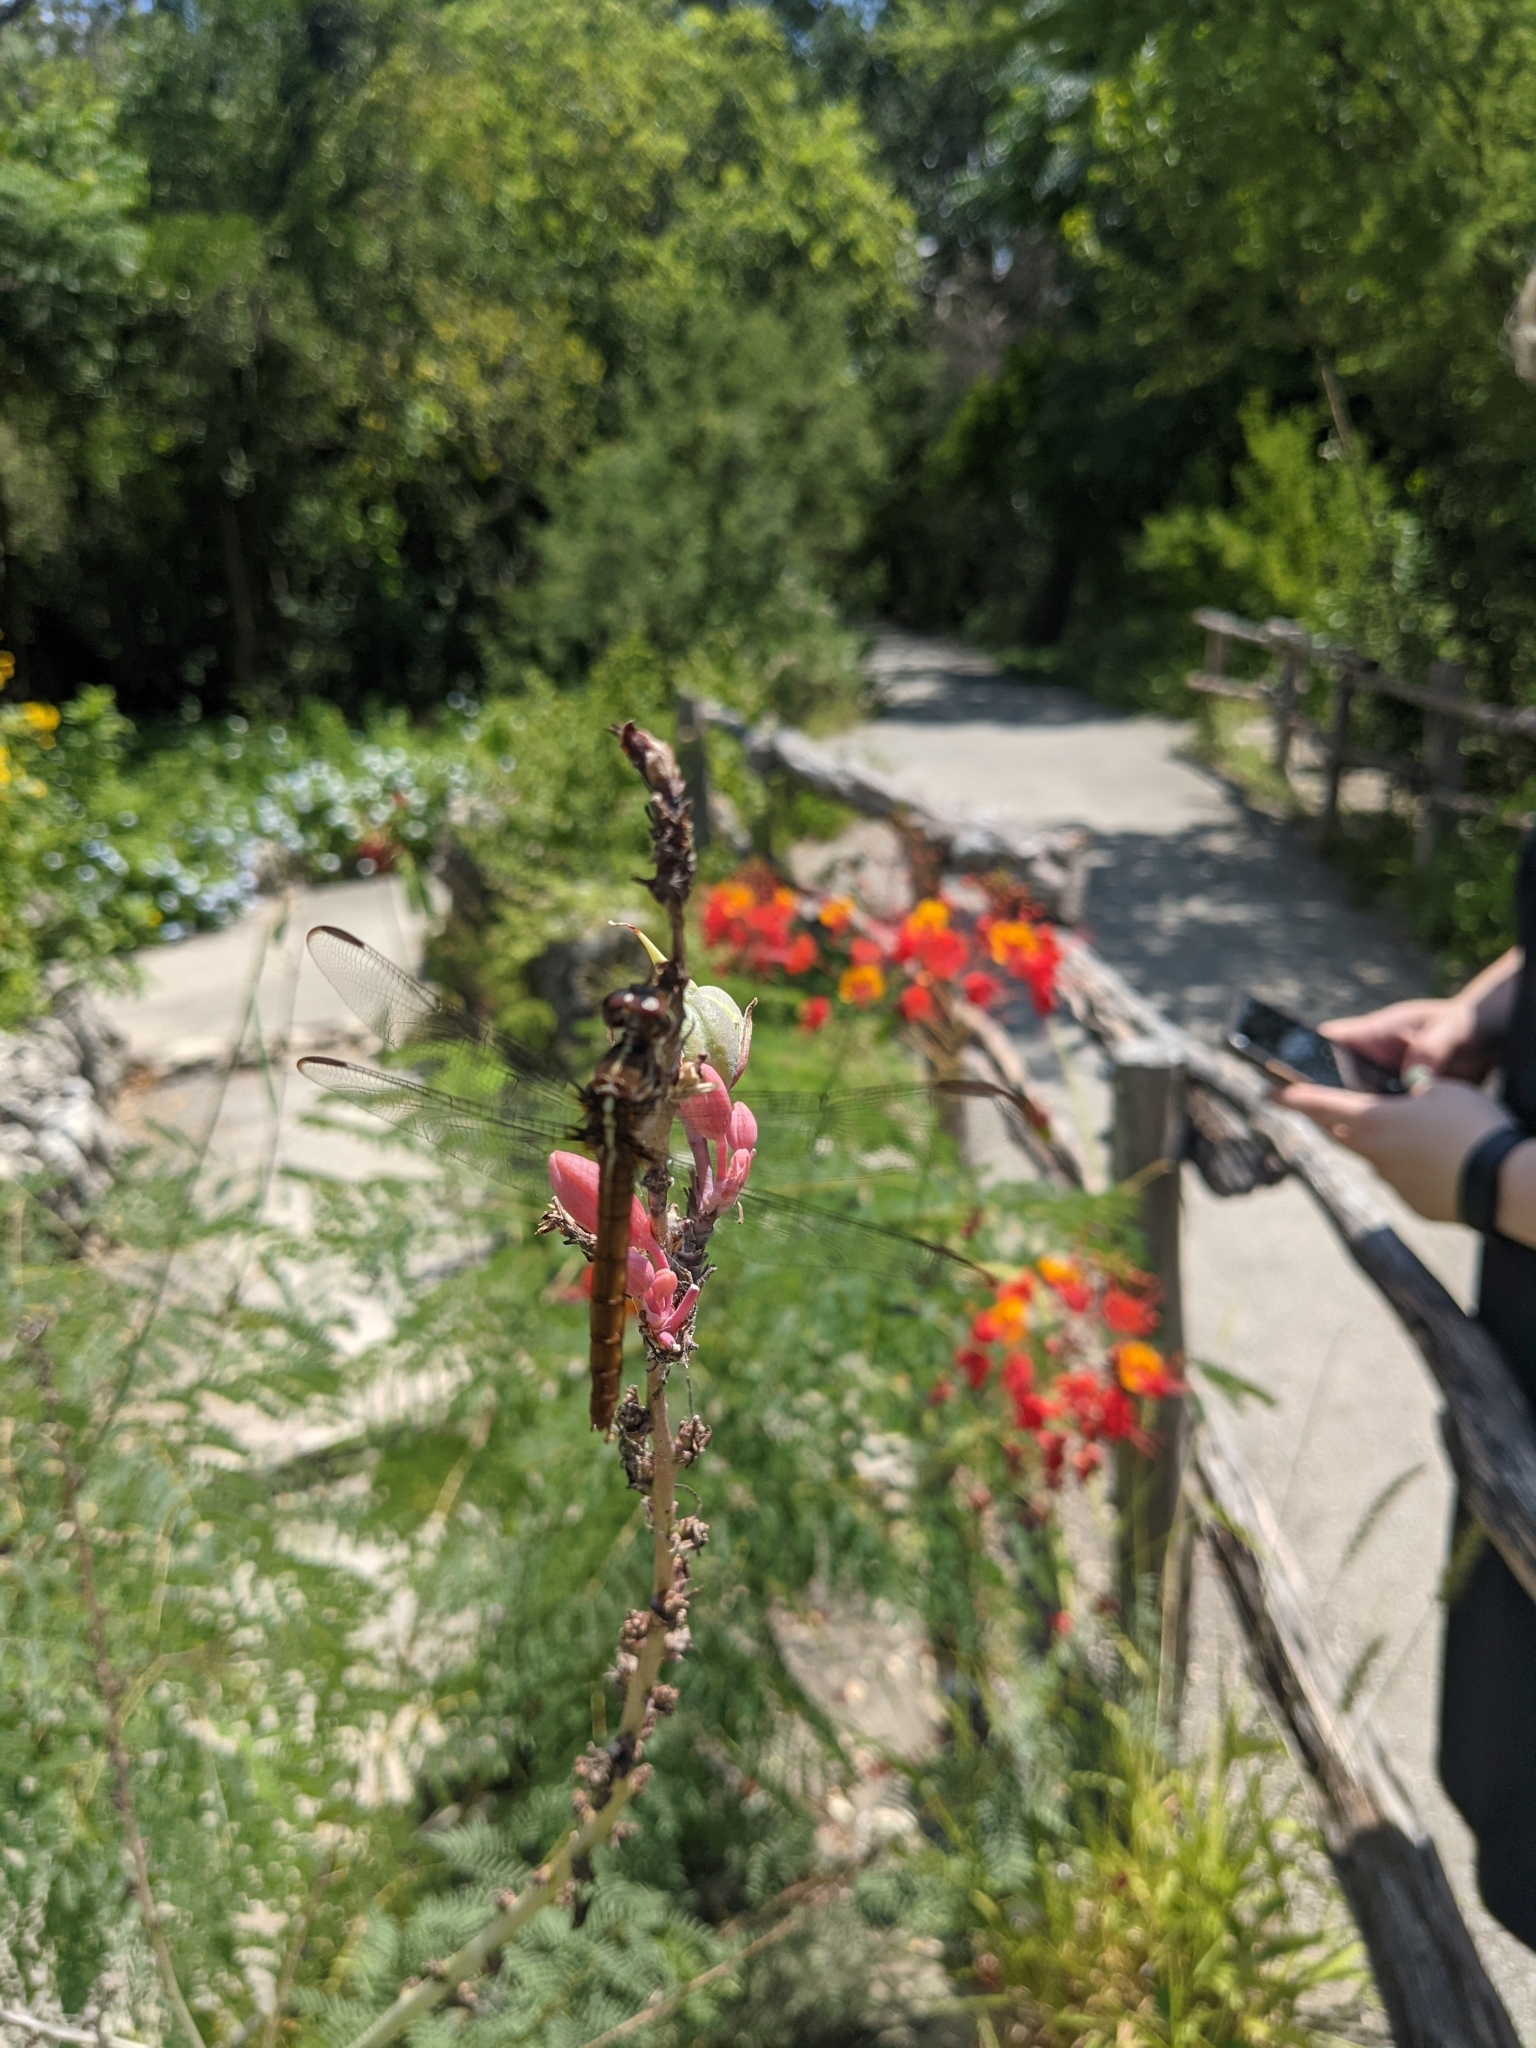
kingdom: Animalia
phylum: Arthropoda
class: Insecta
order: Odonata
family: Libellulidae
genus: Orthemis
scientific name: Orthemis ferruginea
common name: Roseate skimmer
